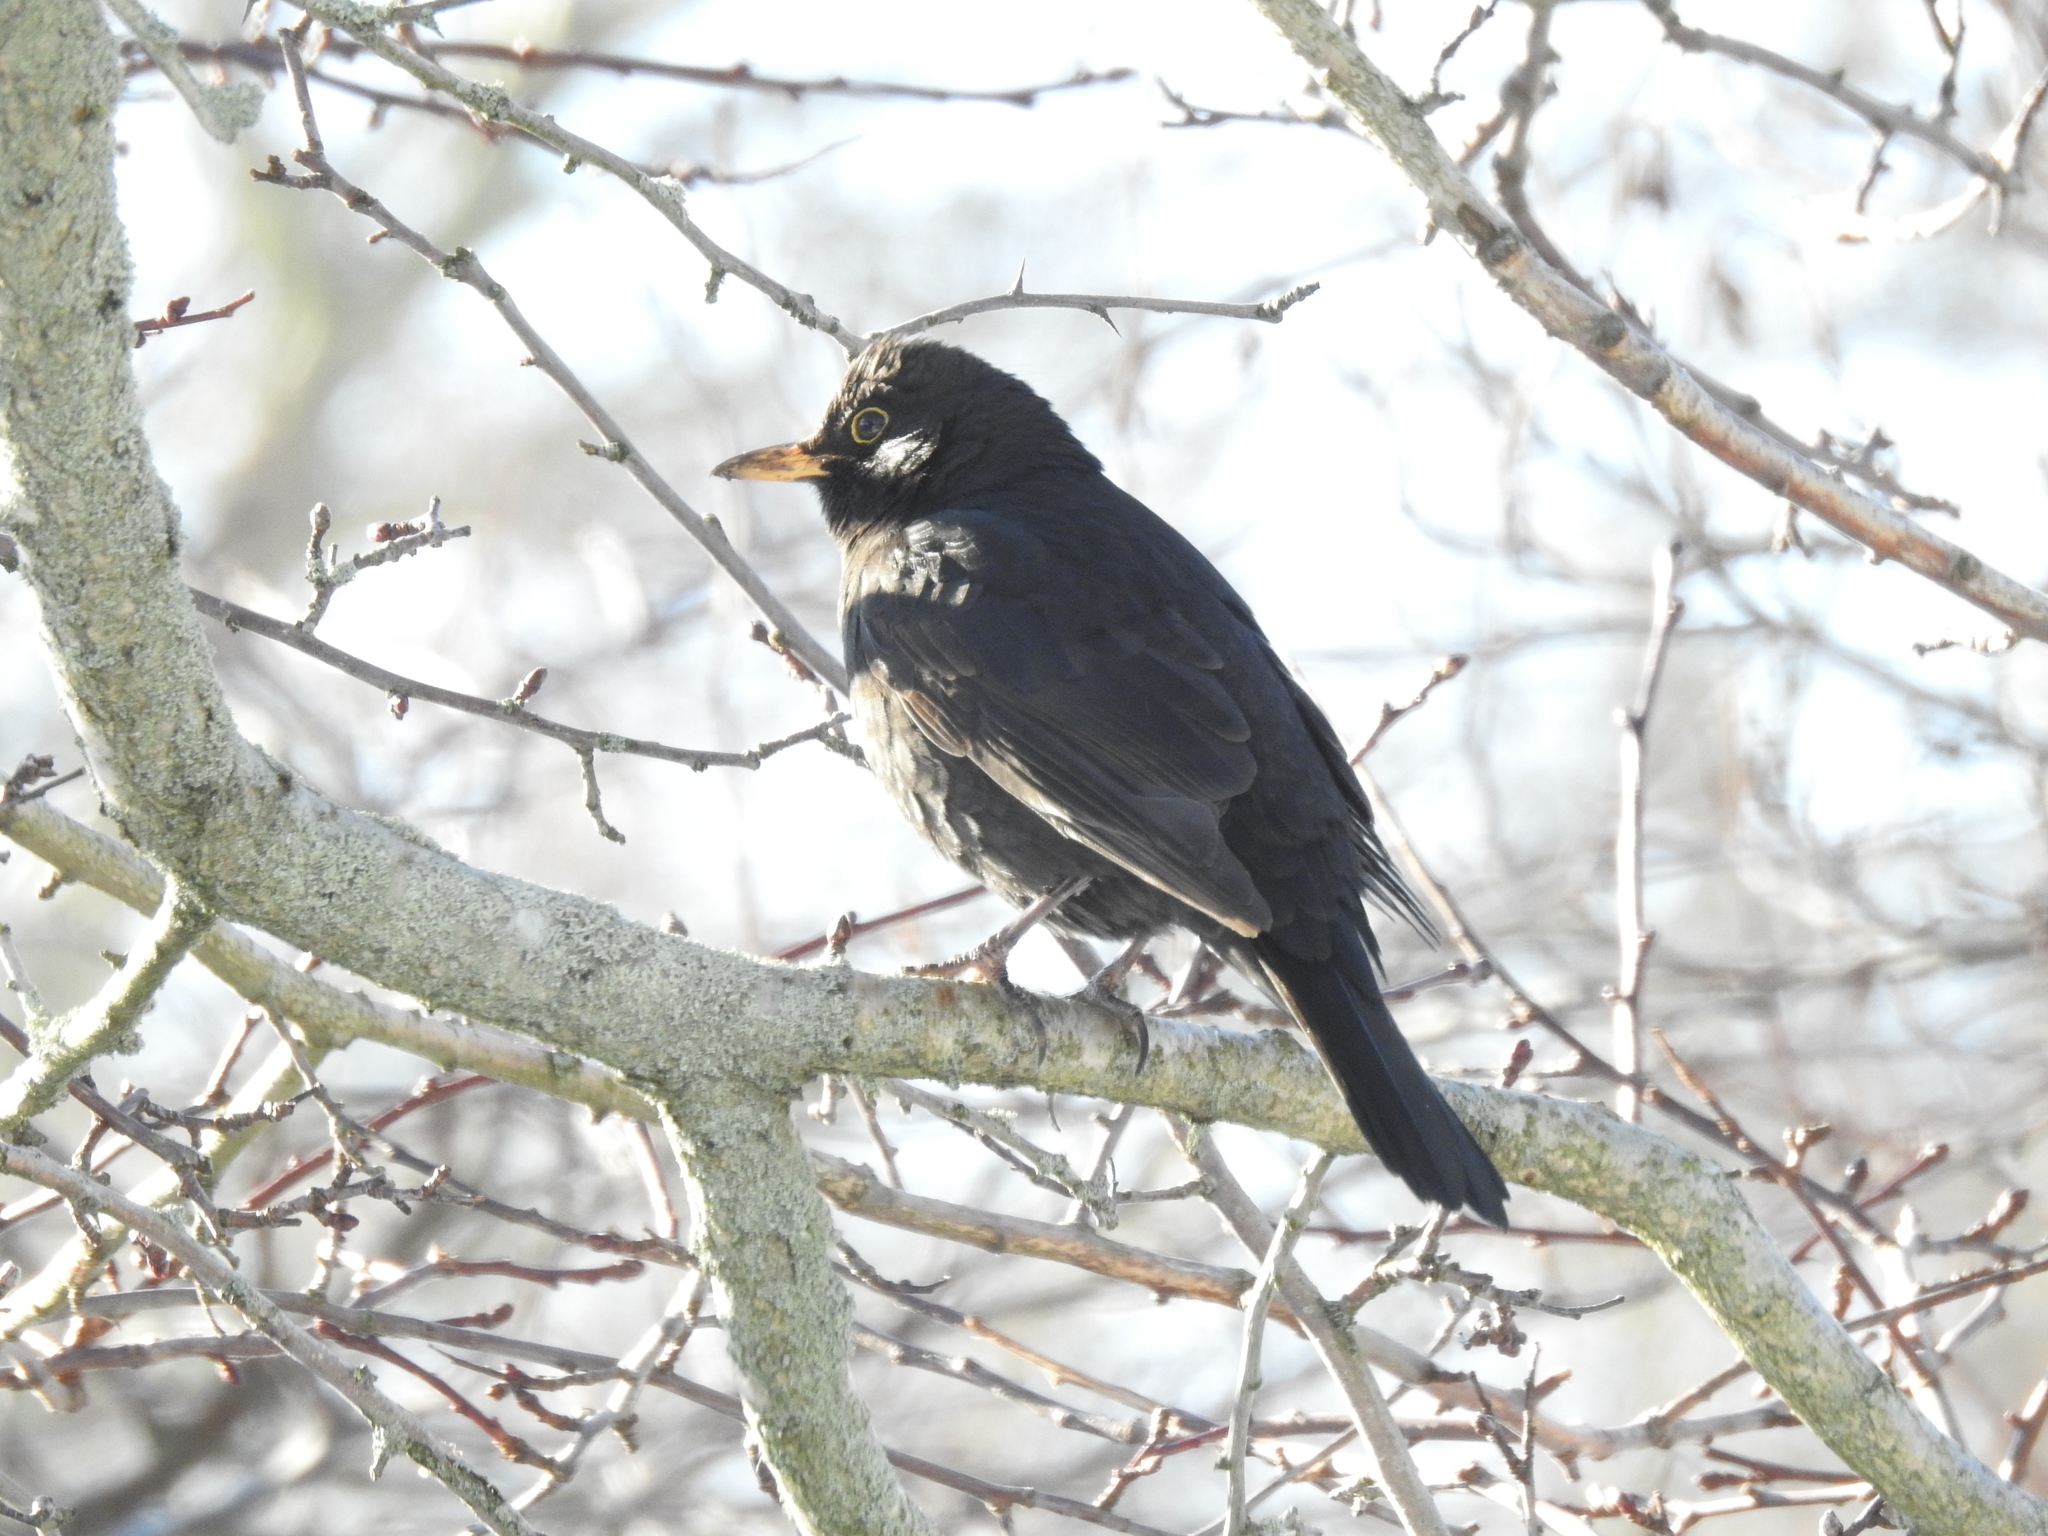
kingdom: Animalia
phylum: Chordata
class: Aves
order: Passeriformes
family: Turdidae
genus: Turdus
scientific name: Turdus merula
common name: Common blackbird
